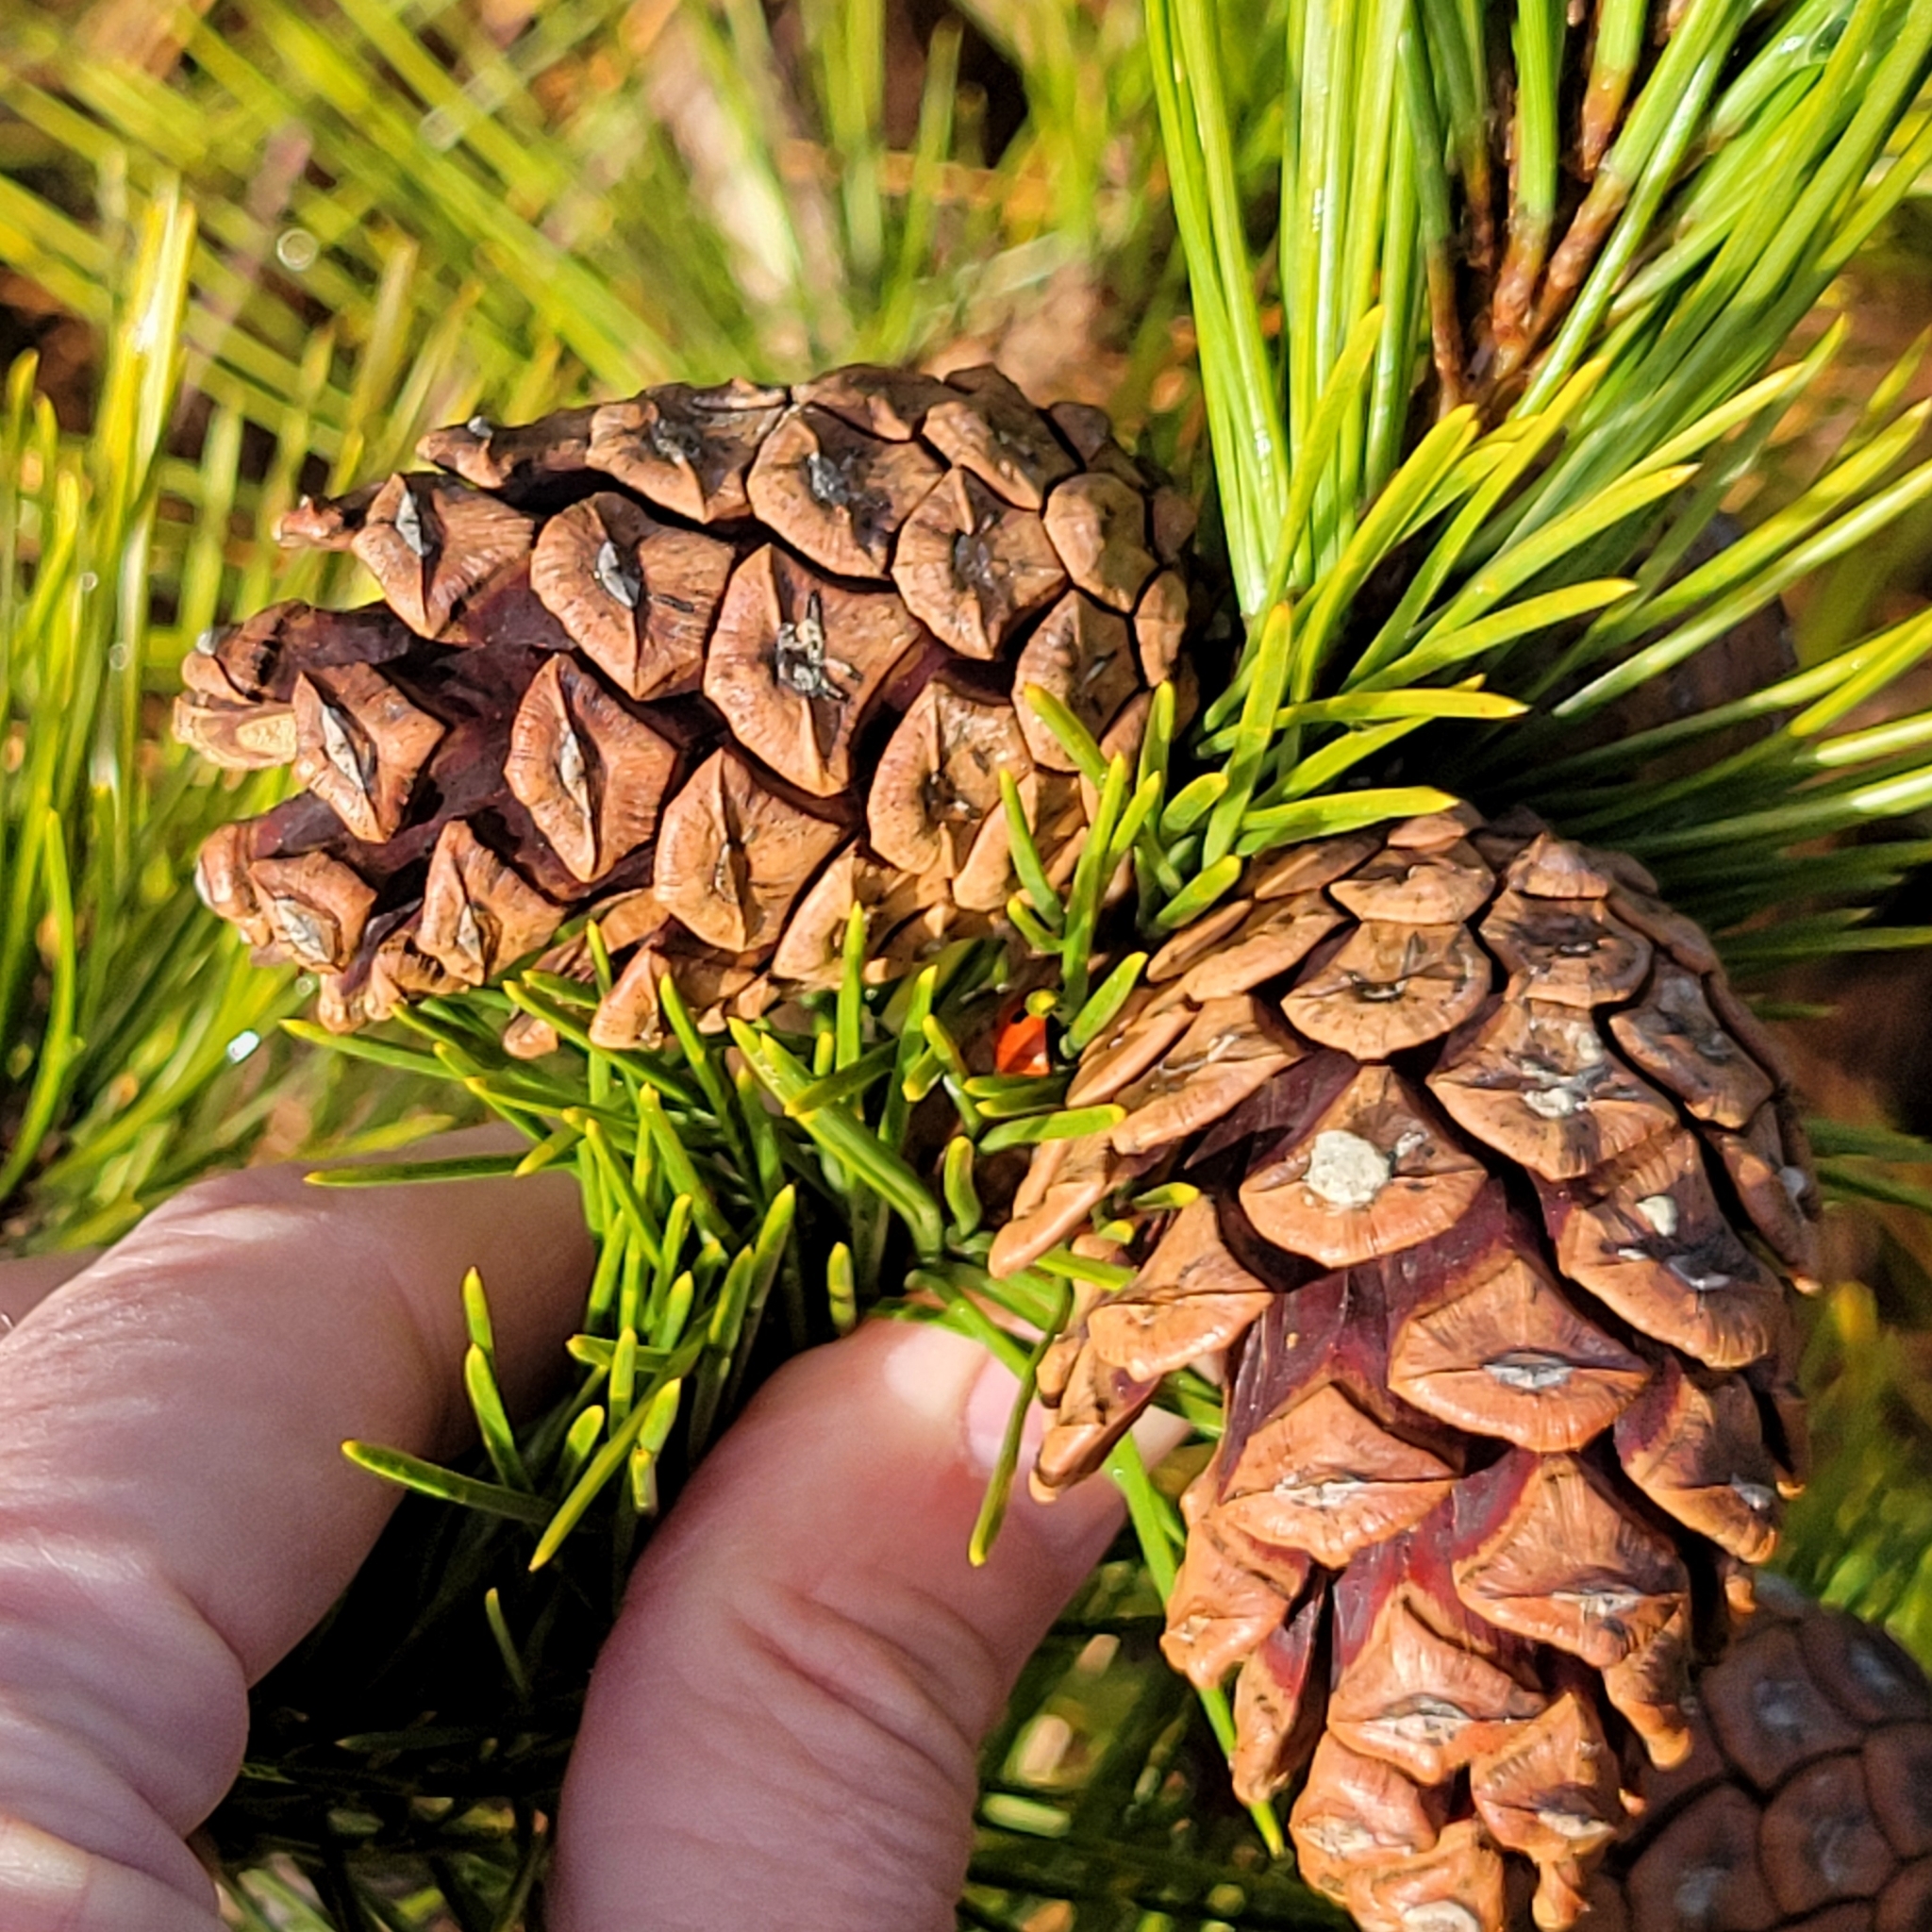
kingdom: Plantae
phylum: Tracheophyta
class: Pinopsida
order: Pinales
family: Pinaceae
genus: Pinus
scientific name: Pinus thunbergii
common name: Japanese black pine
